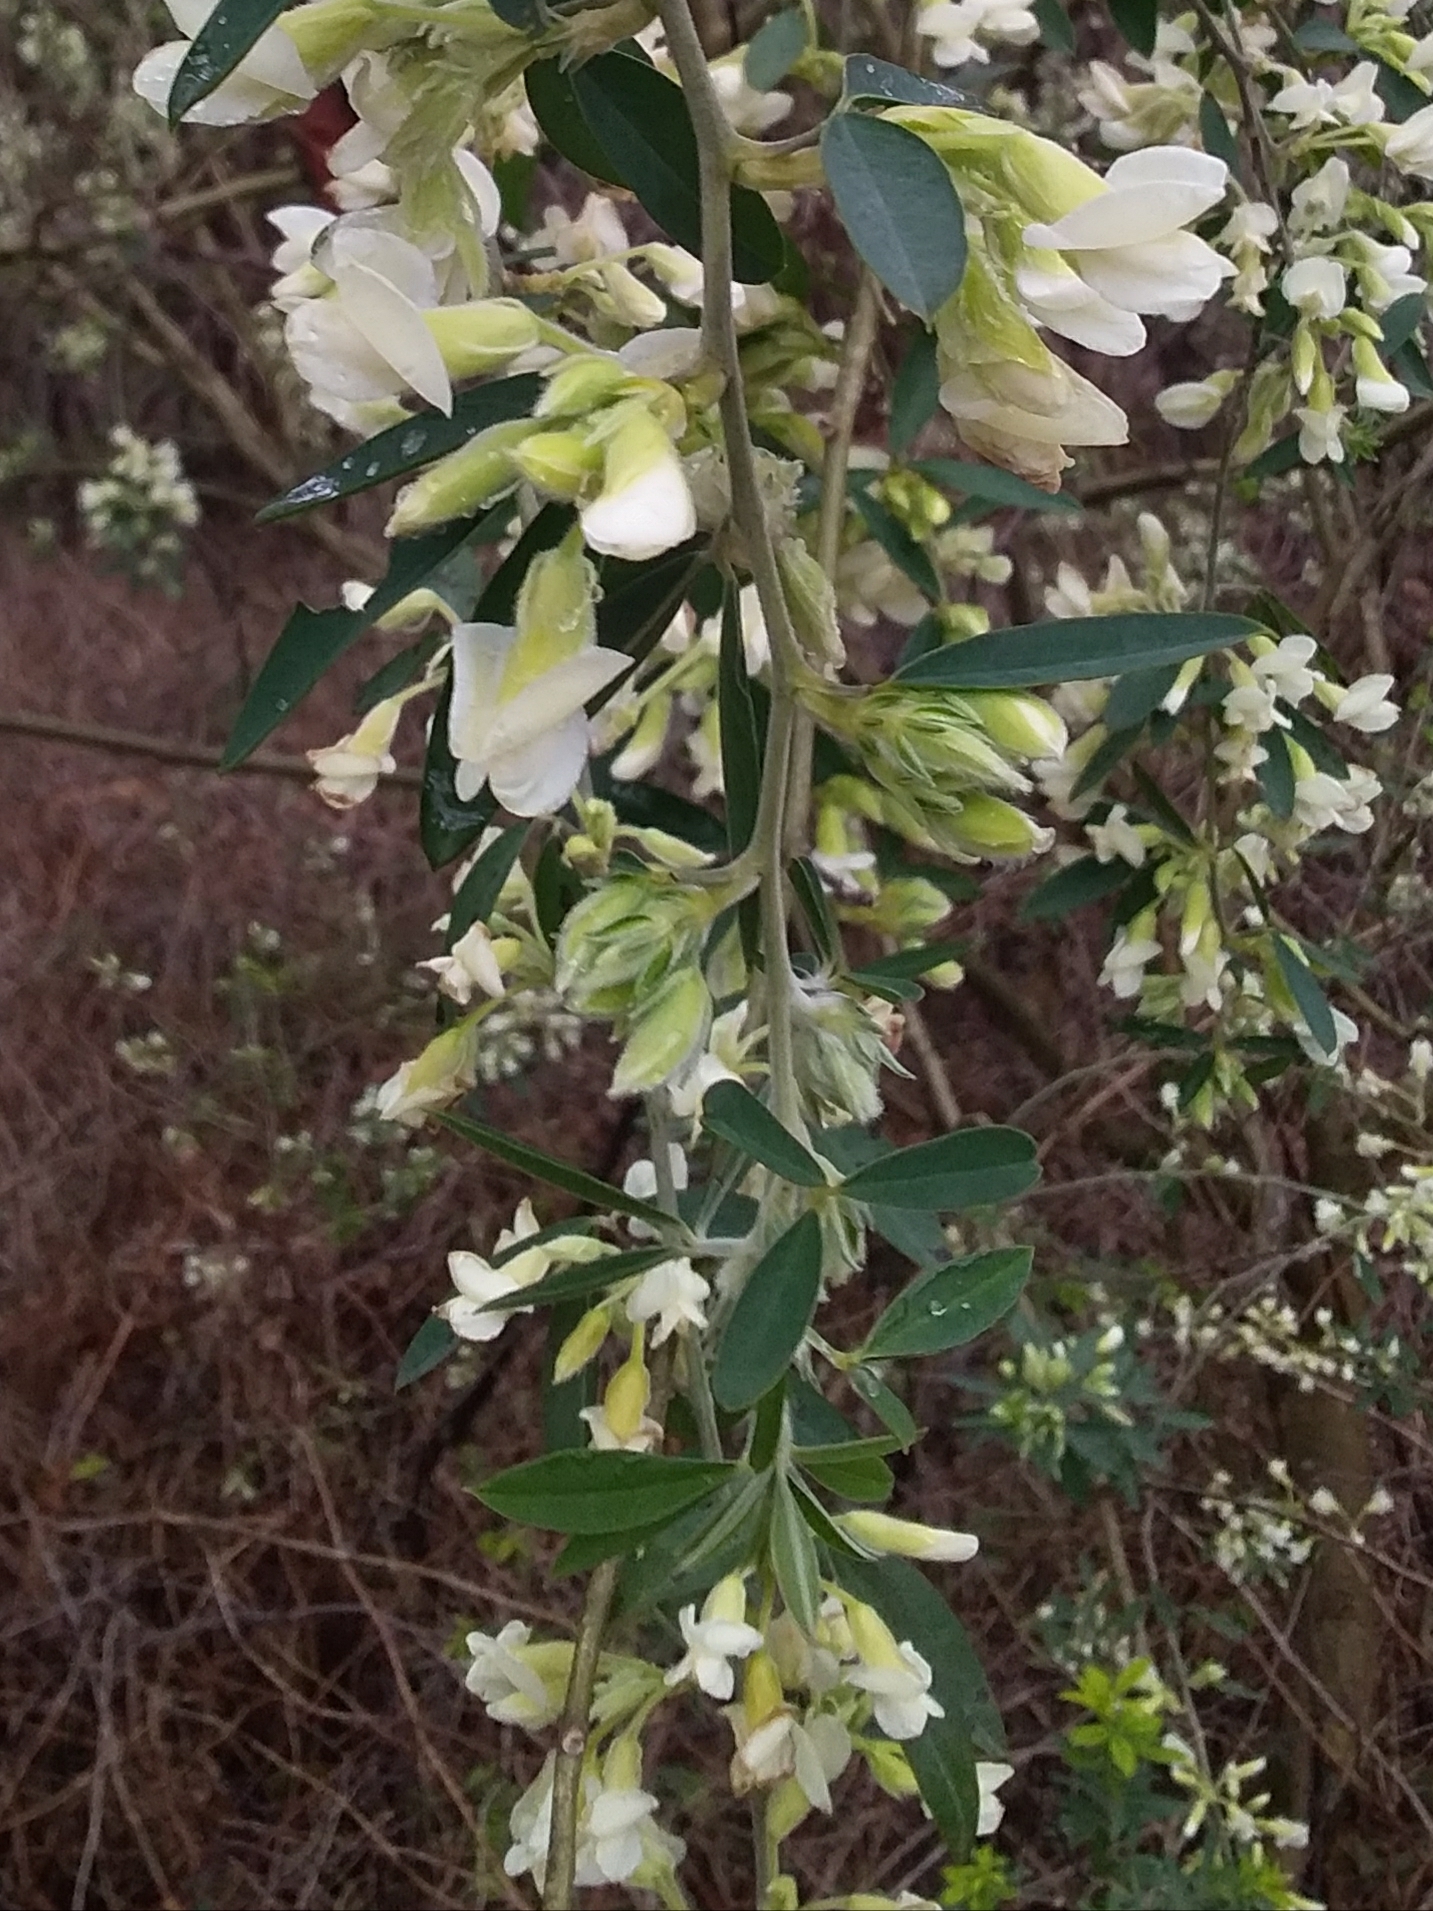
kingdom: Plantae
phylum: Tracheophyta
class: Magnoliopsida
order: Fabales
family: Fabaceae
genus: Chamaecytisus
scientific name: Chamaecytisus prolifer
